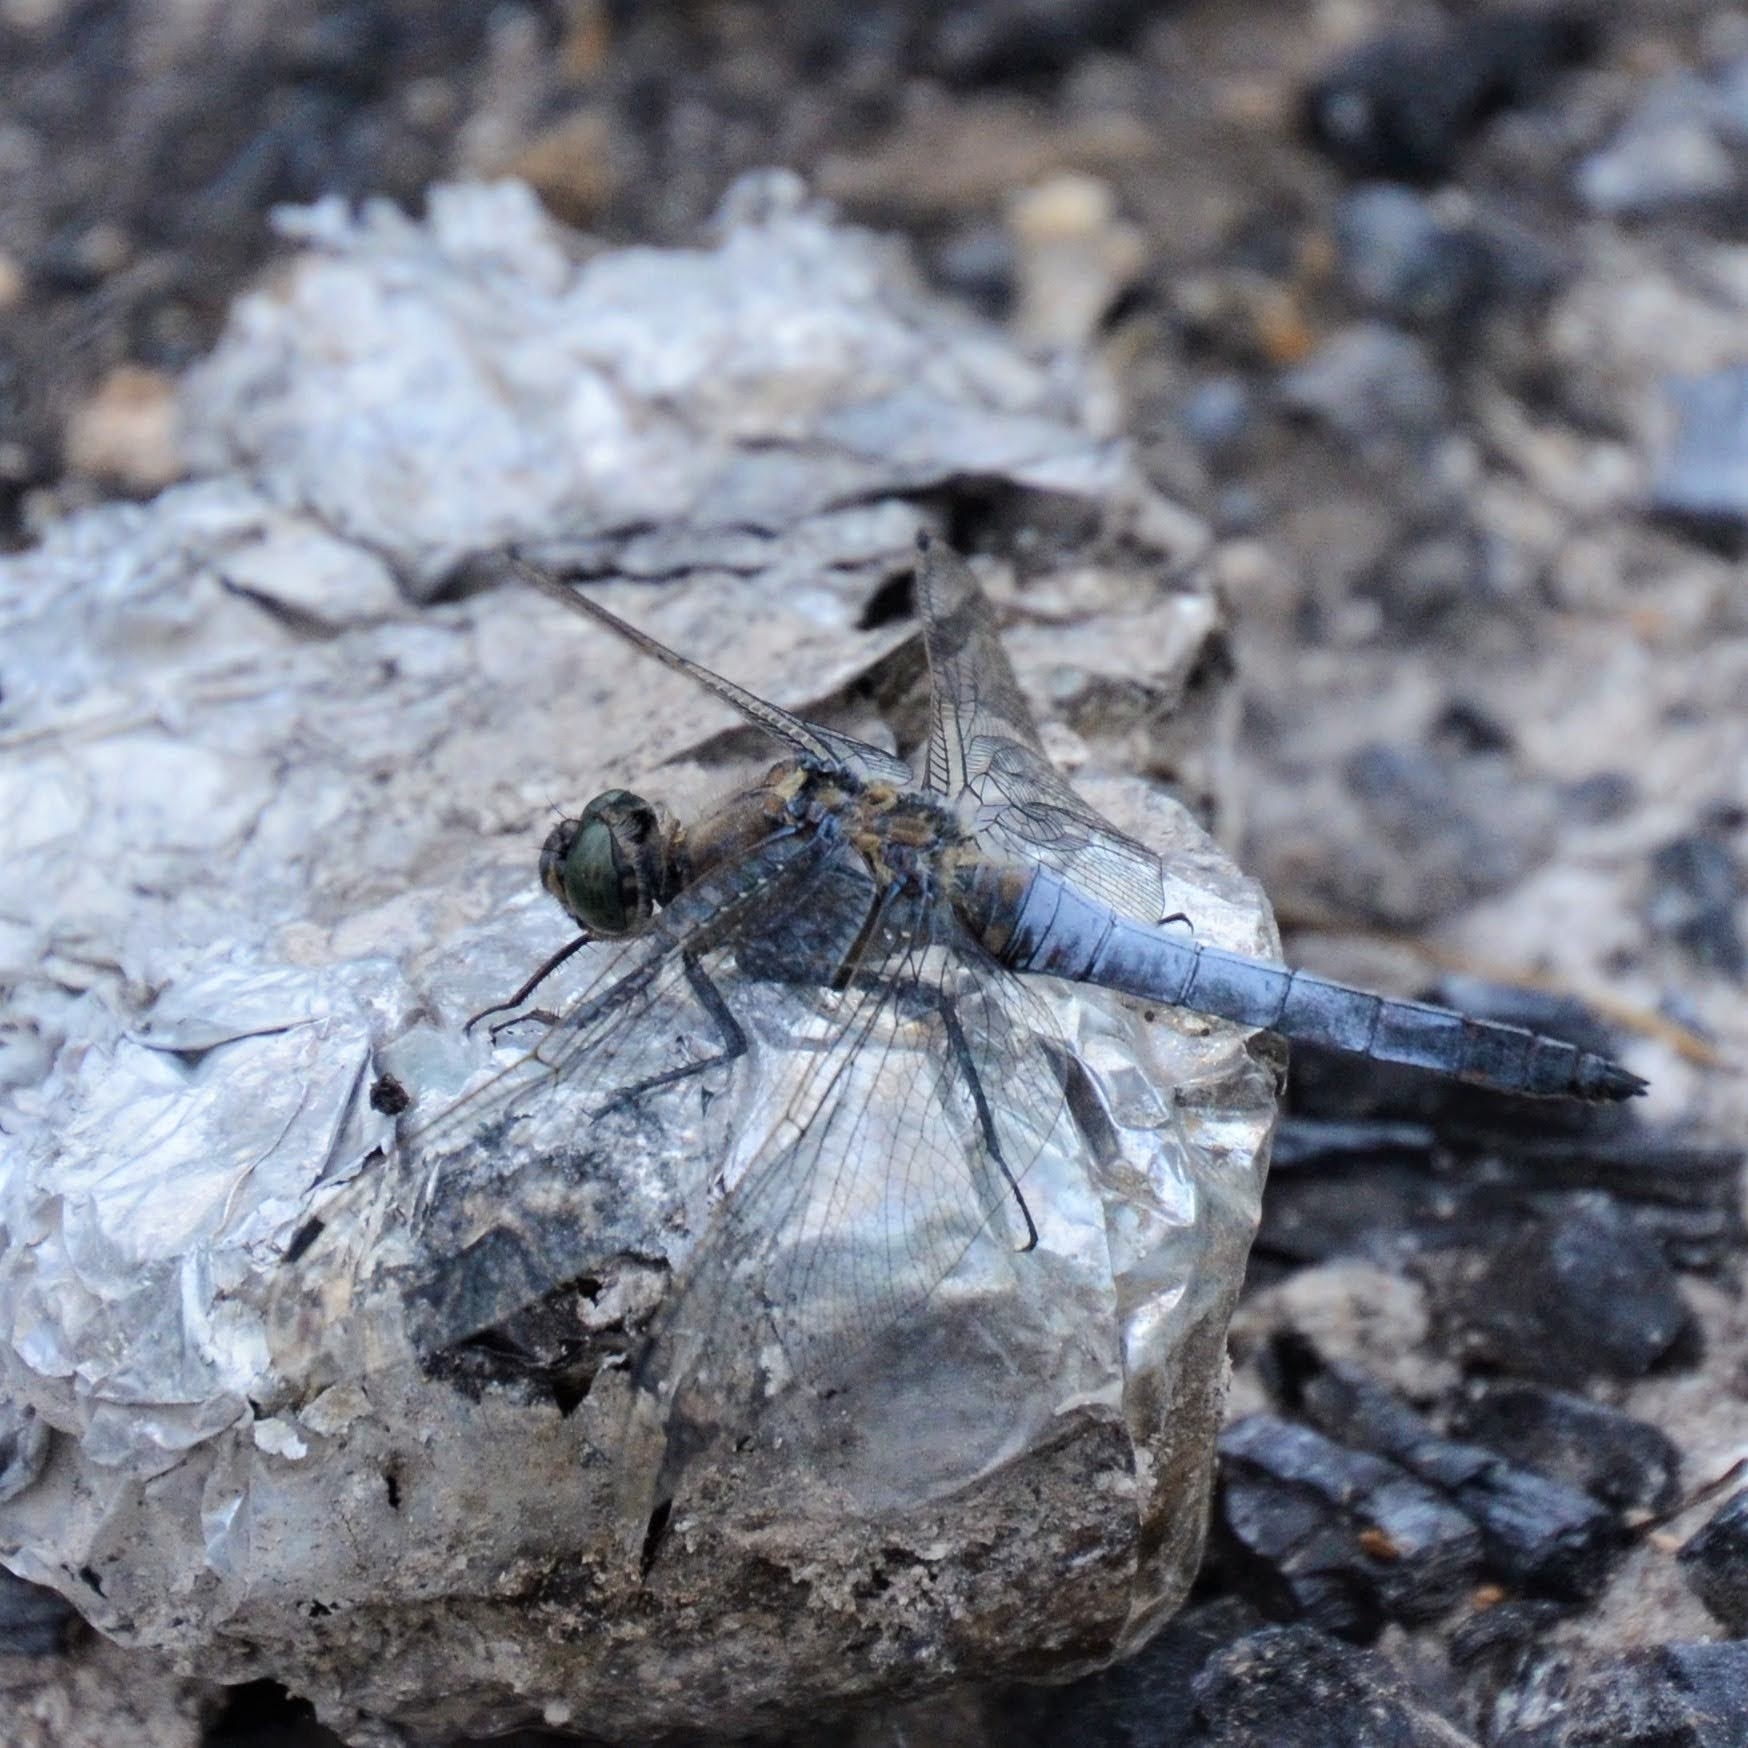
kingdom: Animalia
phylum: Arthropoda
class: Insecta
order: Odonata
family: Libellulidae
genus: Orthetrum
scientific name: Orthetrum cancellatum
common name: Black-tailed skimmer
